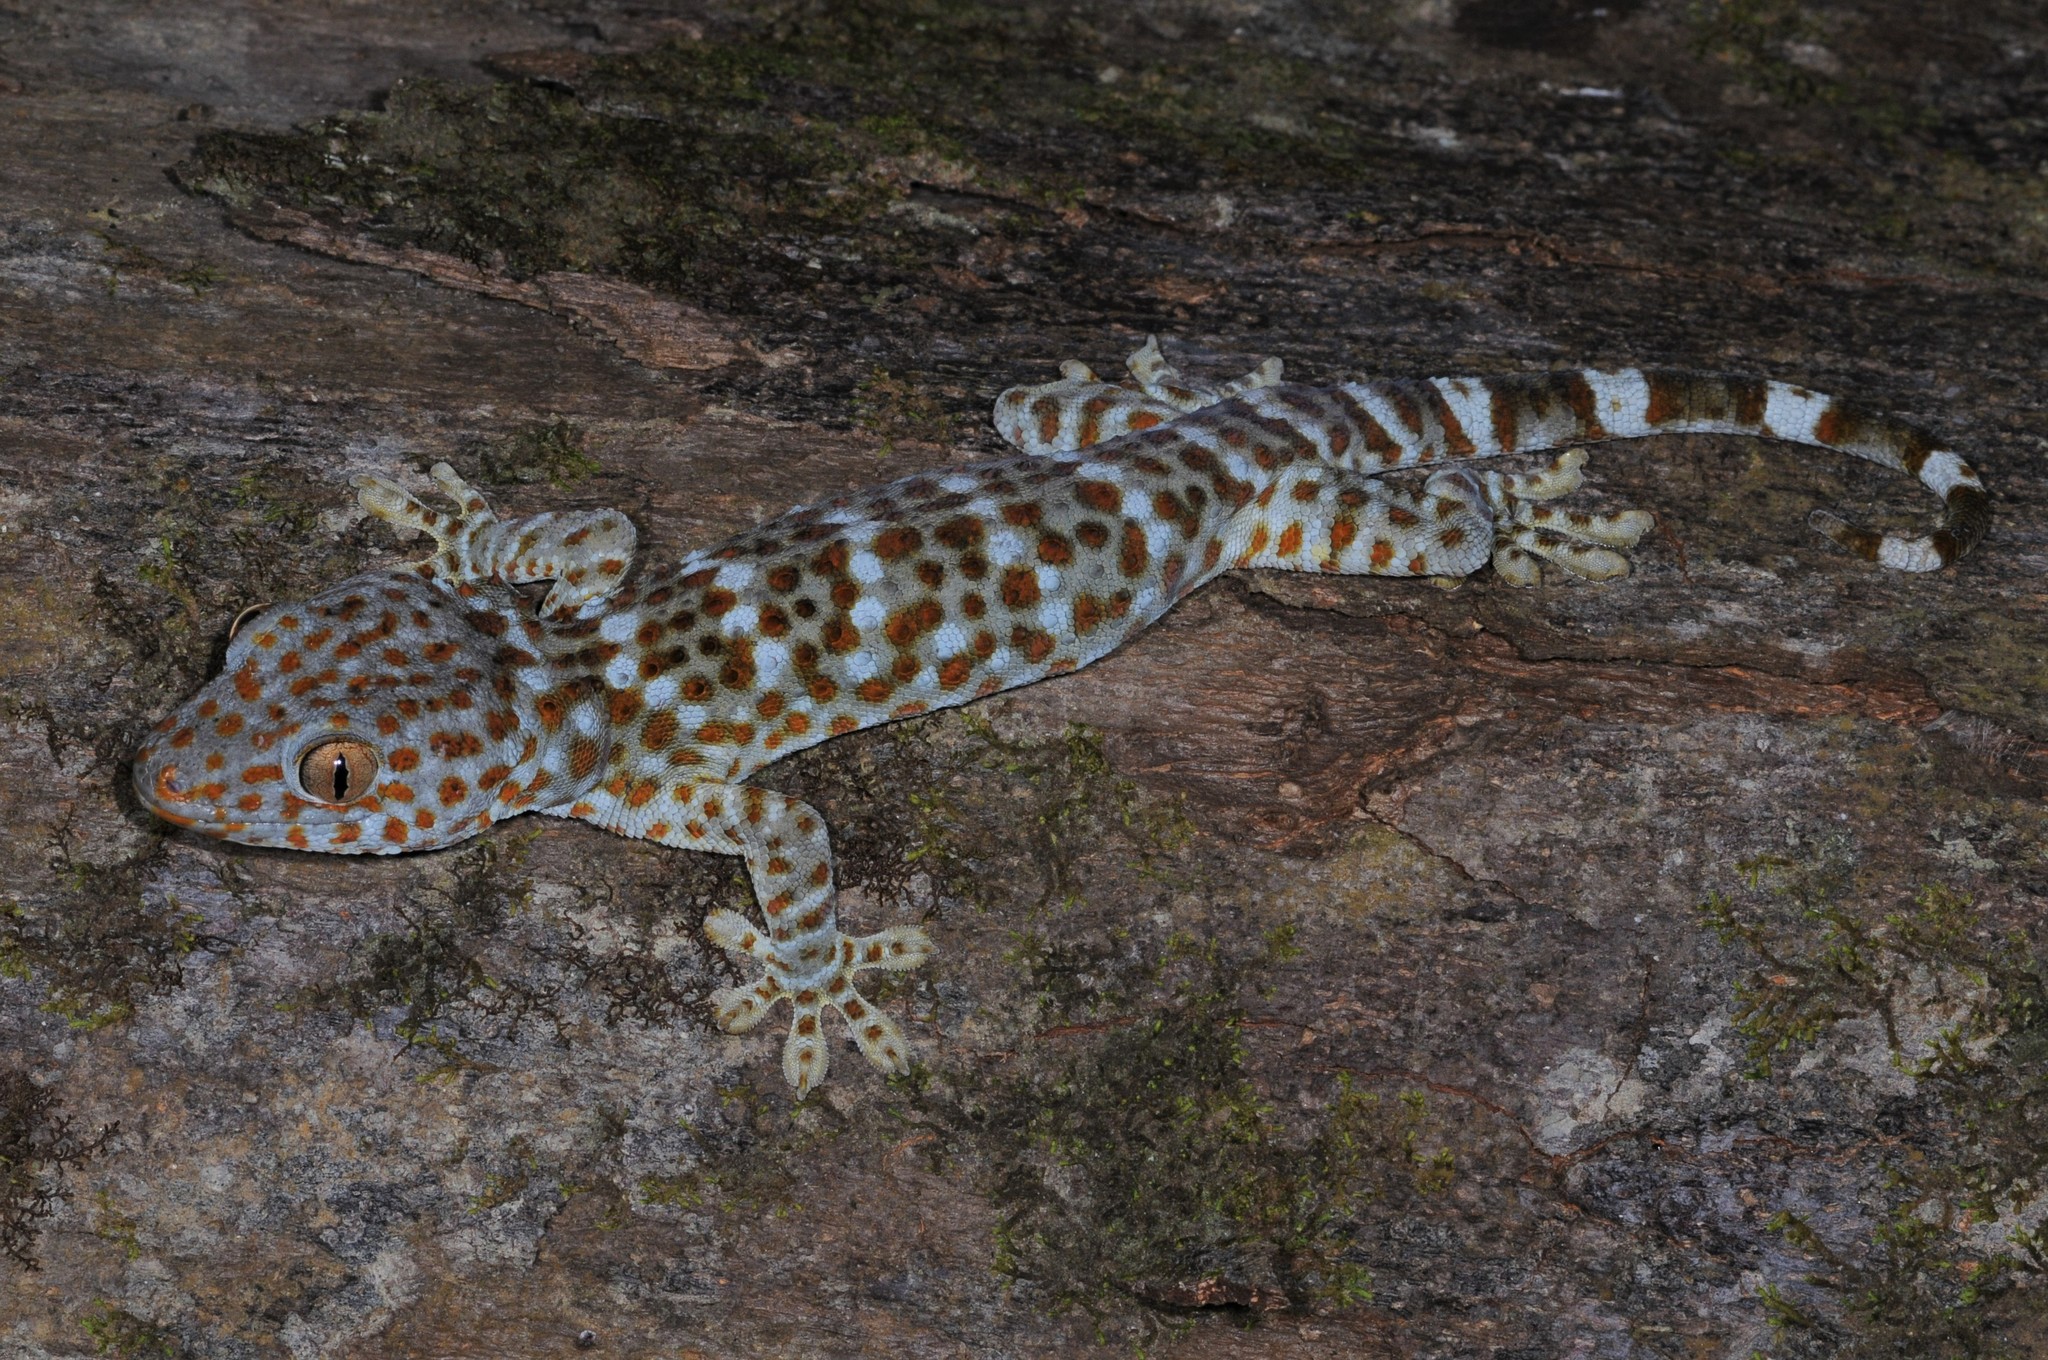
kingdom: Animalia
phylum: Chordata
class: Squamata
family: Gekkonidae
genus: Gekko
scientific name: Gekko gecko
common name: Tokay gecko
